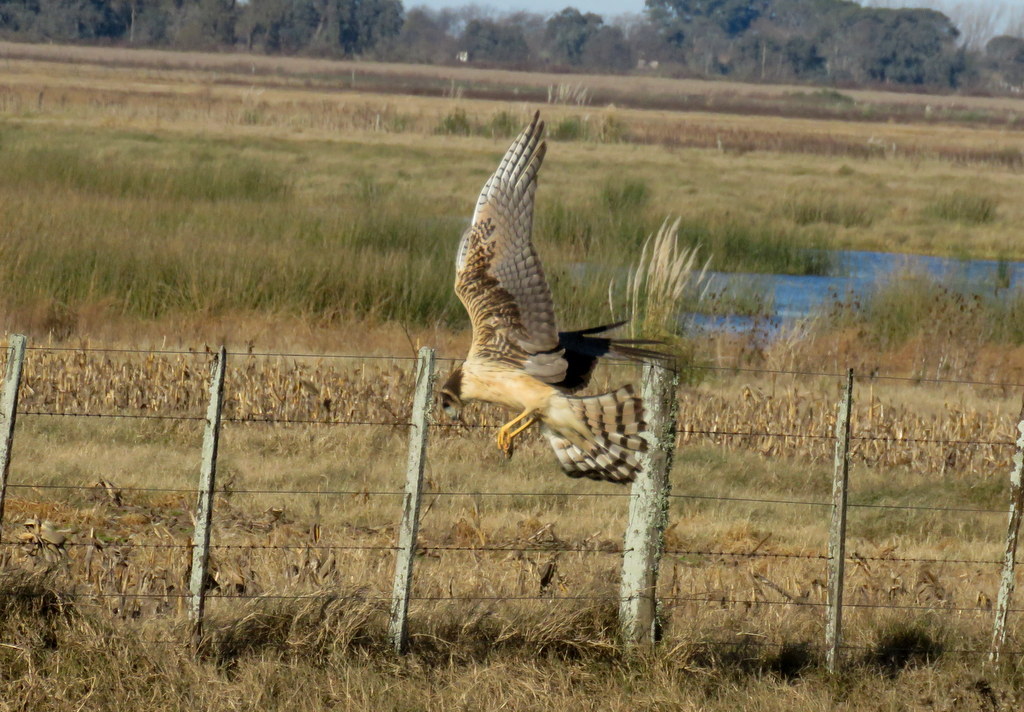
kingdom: Animalia
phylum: Chordata
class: Aves
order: Accipitriformes
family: Accipitridae
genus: Circus
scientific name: Circus buffoni
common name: Long-winged harrier
